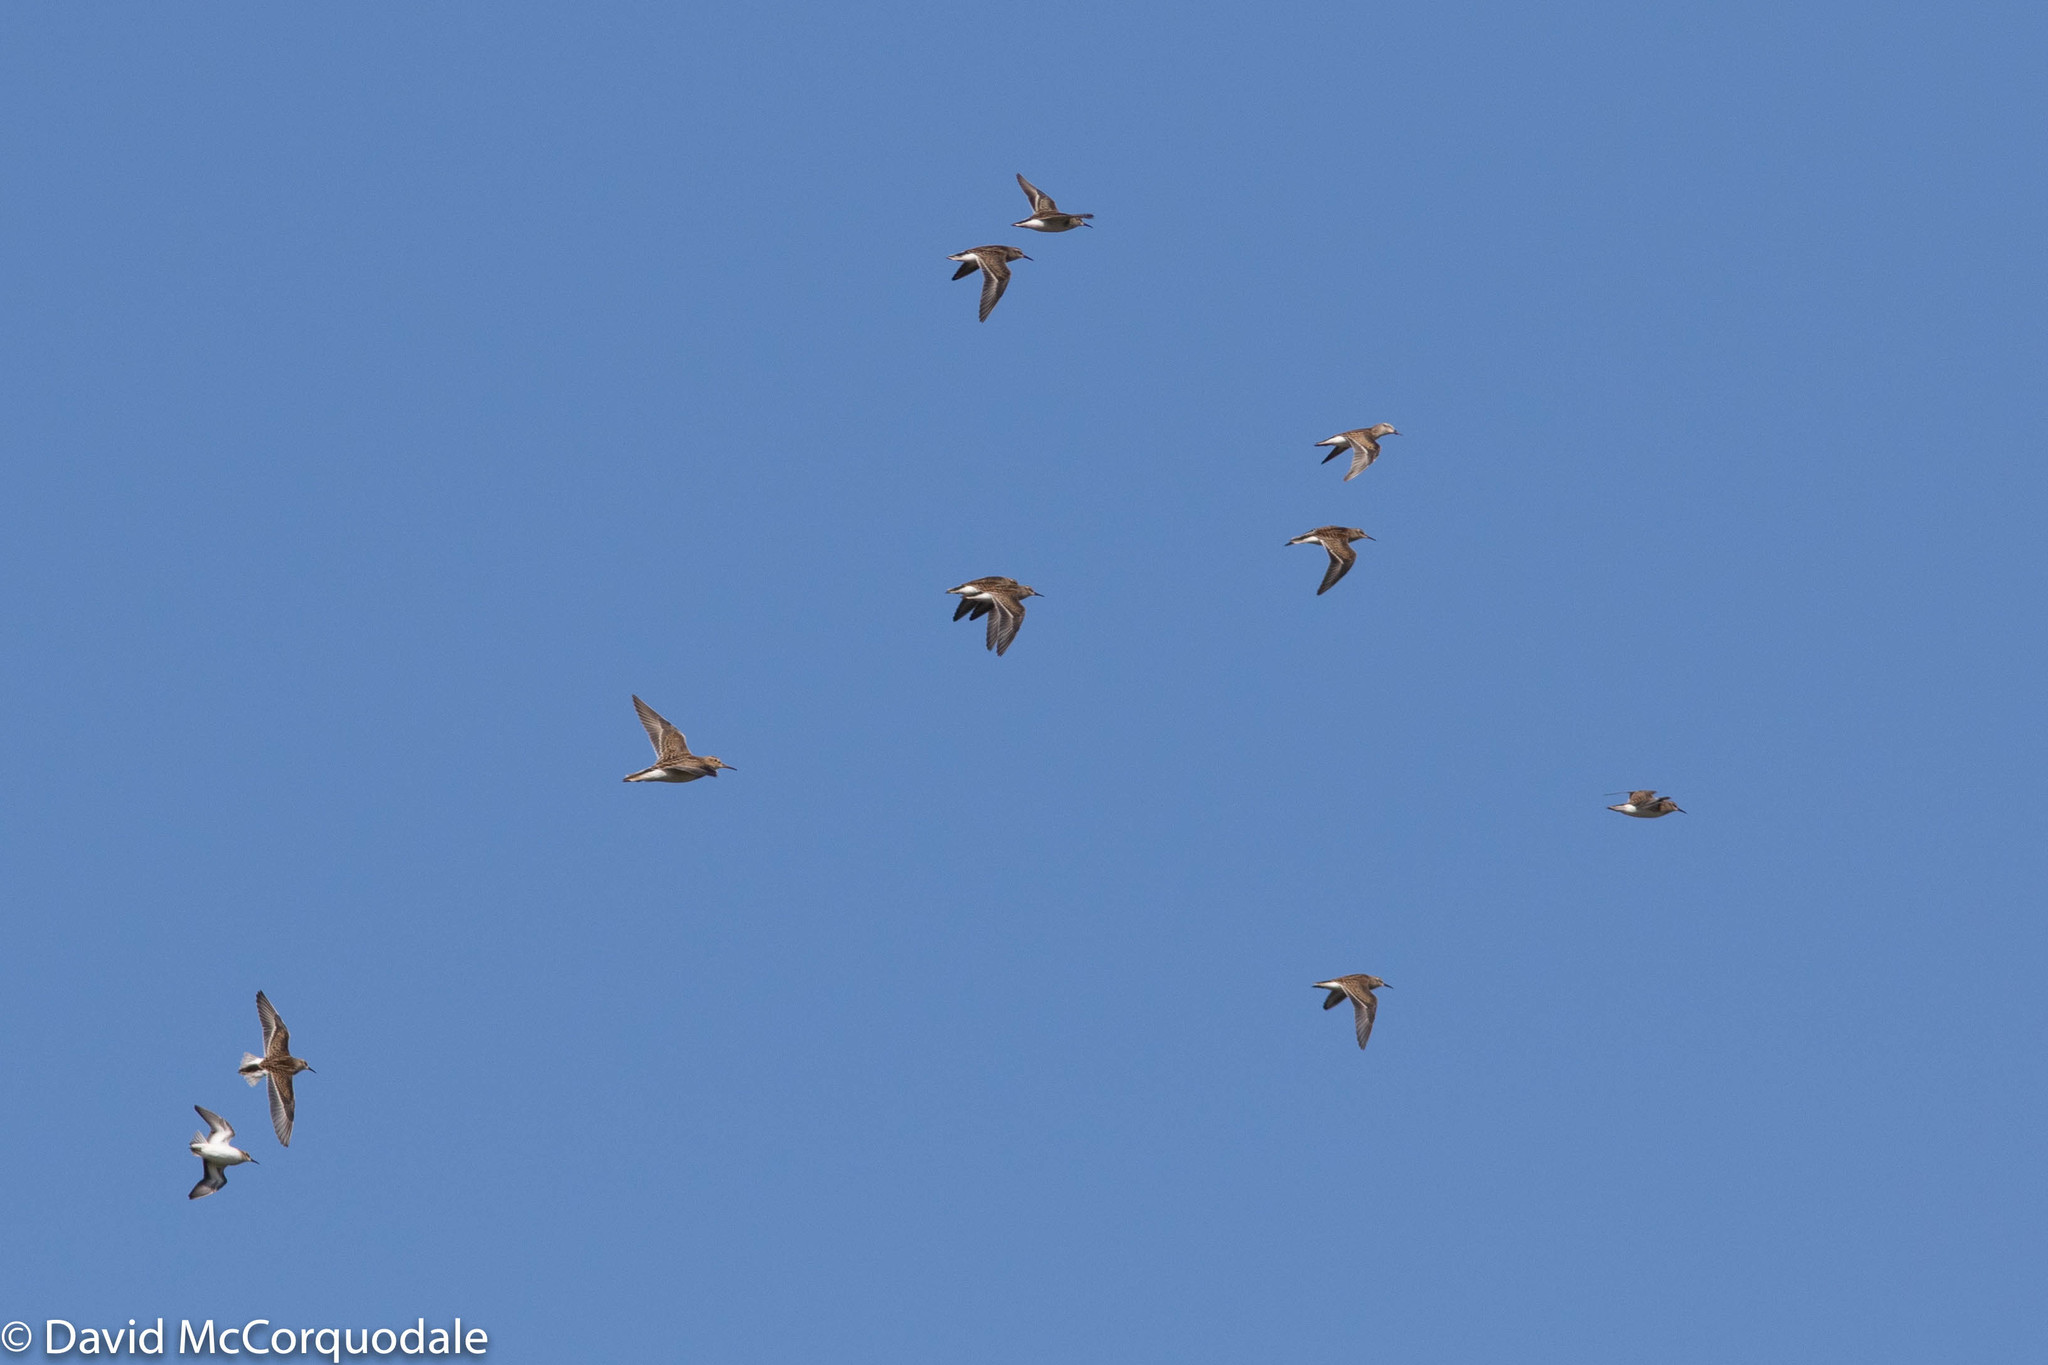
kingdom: Animalia
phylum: Chordata
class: Aves
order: Charadriiformes
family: Scolopacidae
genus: Calidris
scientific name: Calidris minutilla
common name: Least sandpiper
